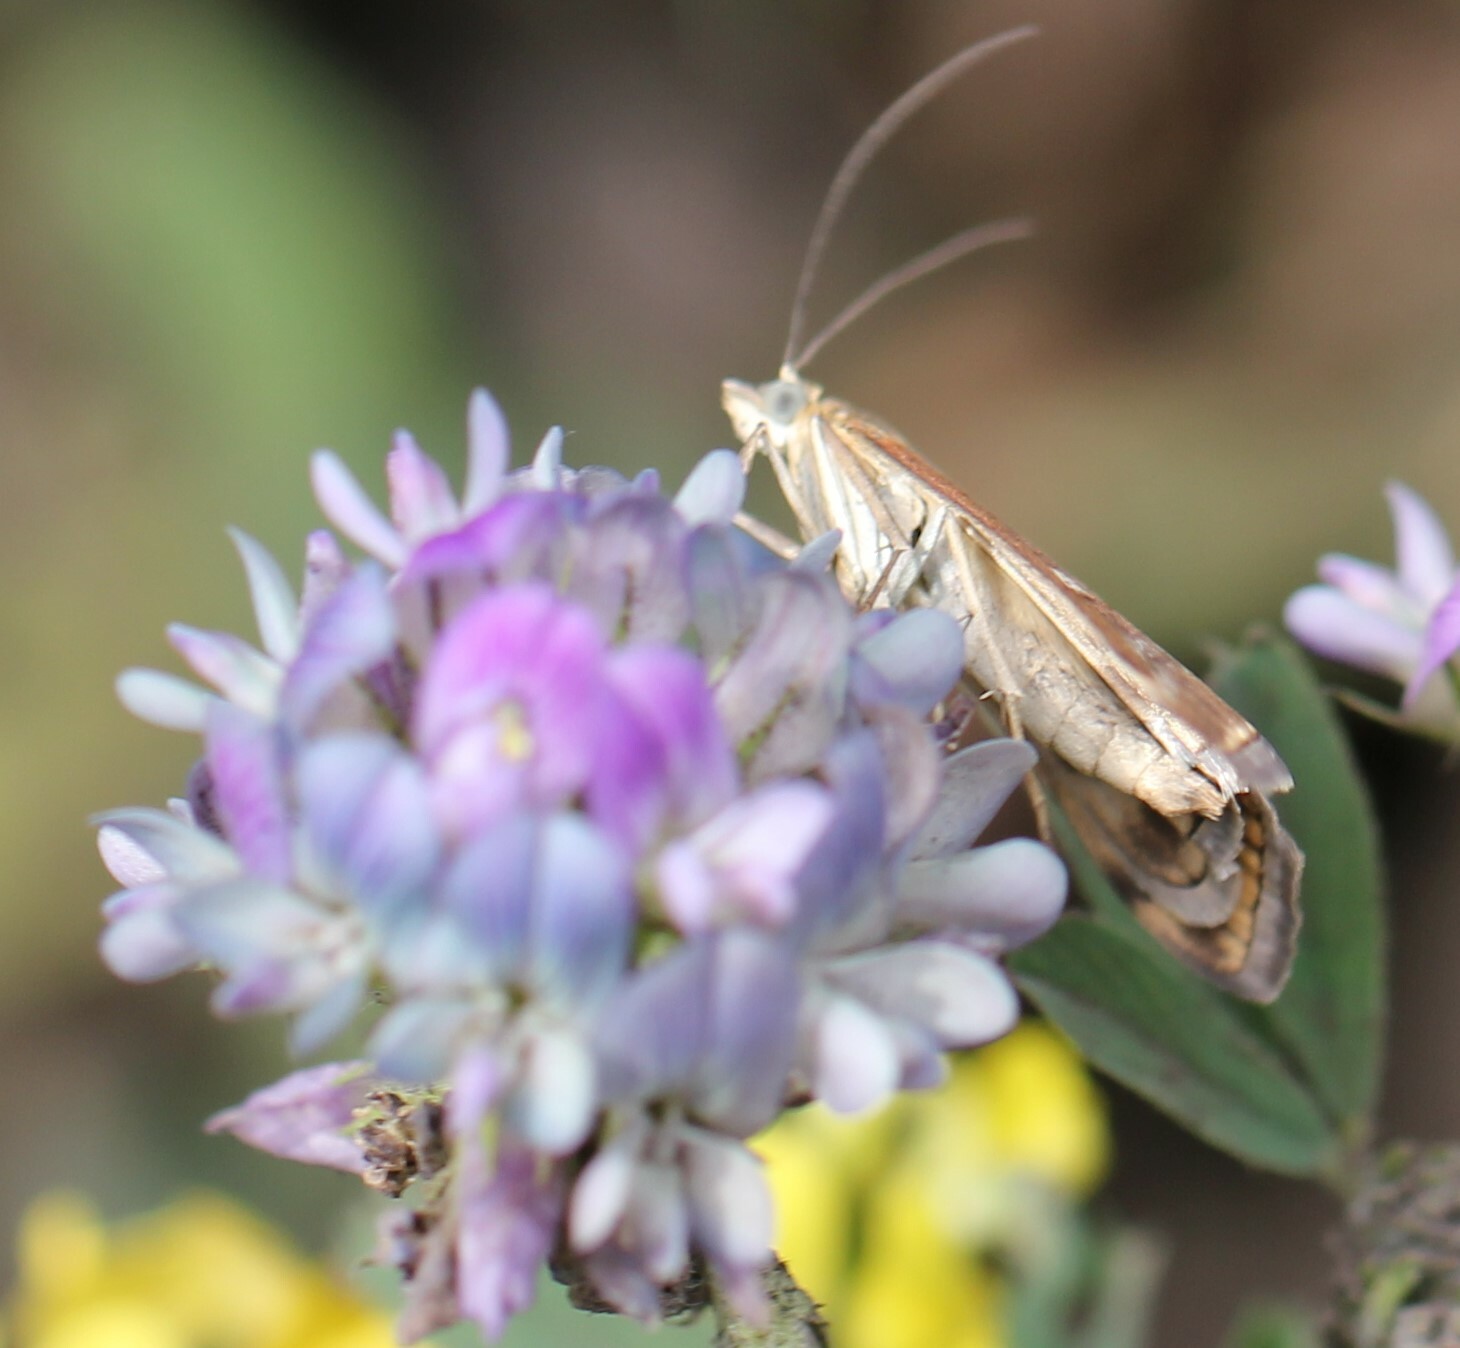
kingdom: Animalia
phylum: Arthropoda
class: Insecta
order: Lepidoptera
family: Crambidae
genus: Loxostege
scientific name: Loxostege sticticalis
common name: Crambid moth
